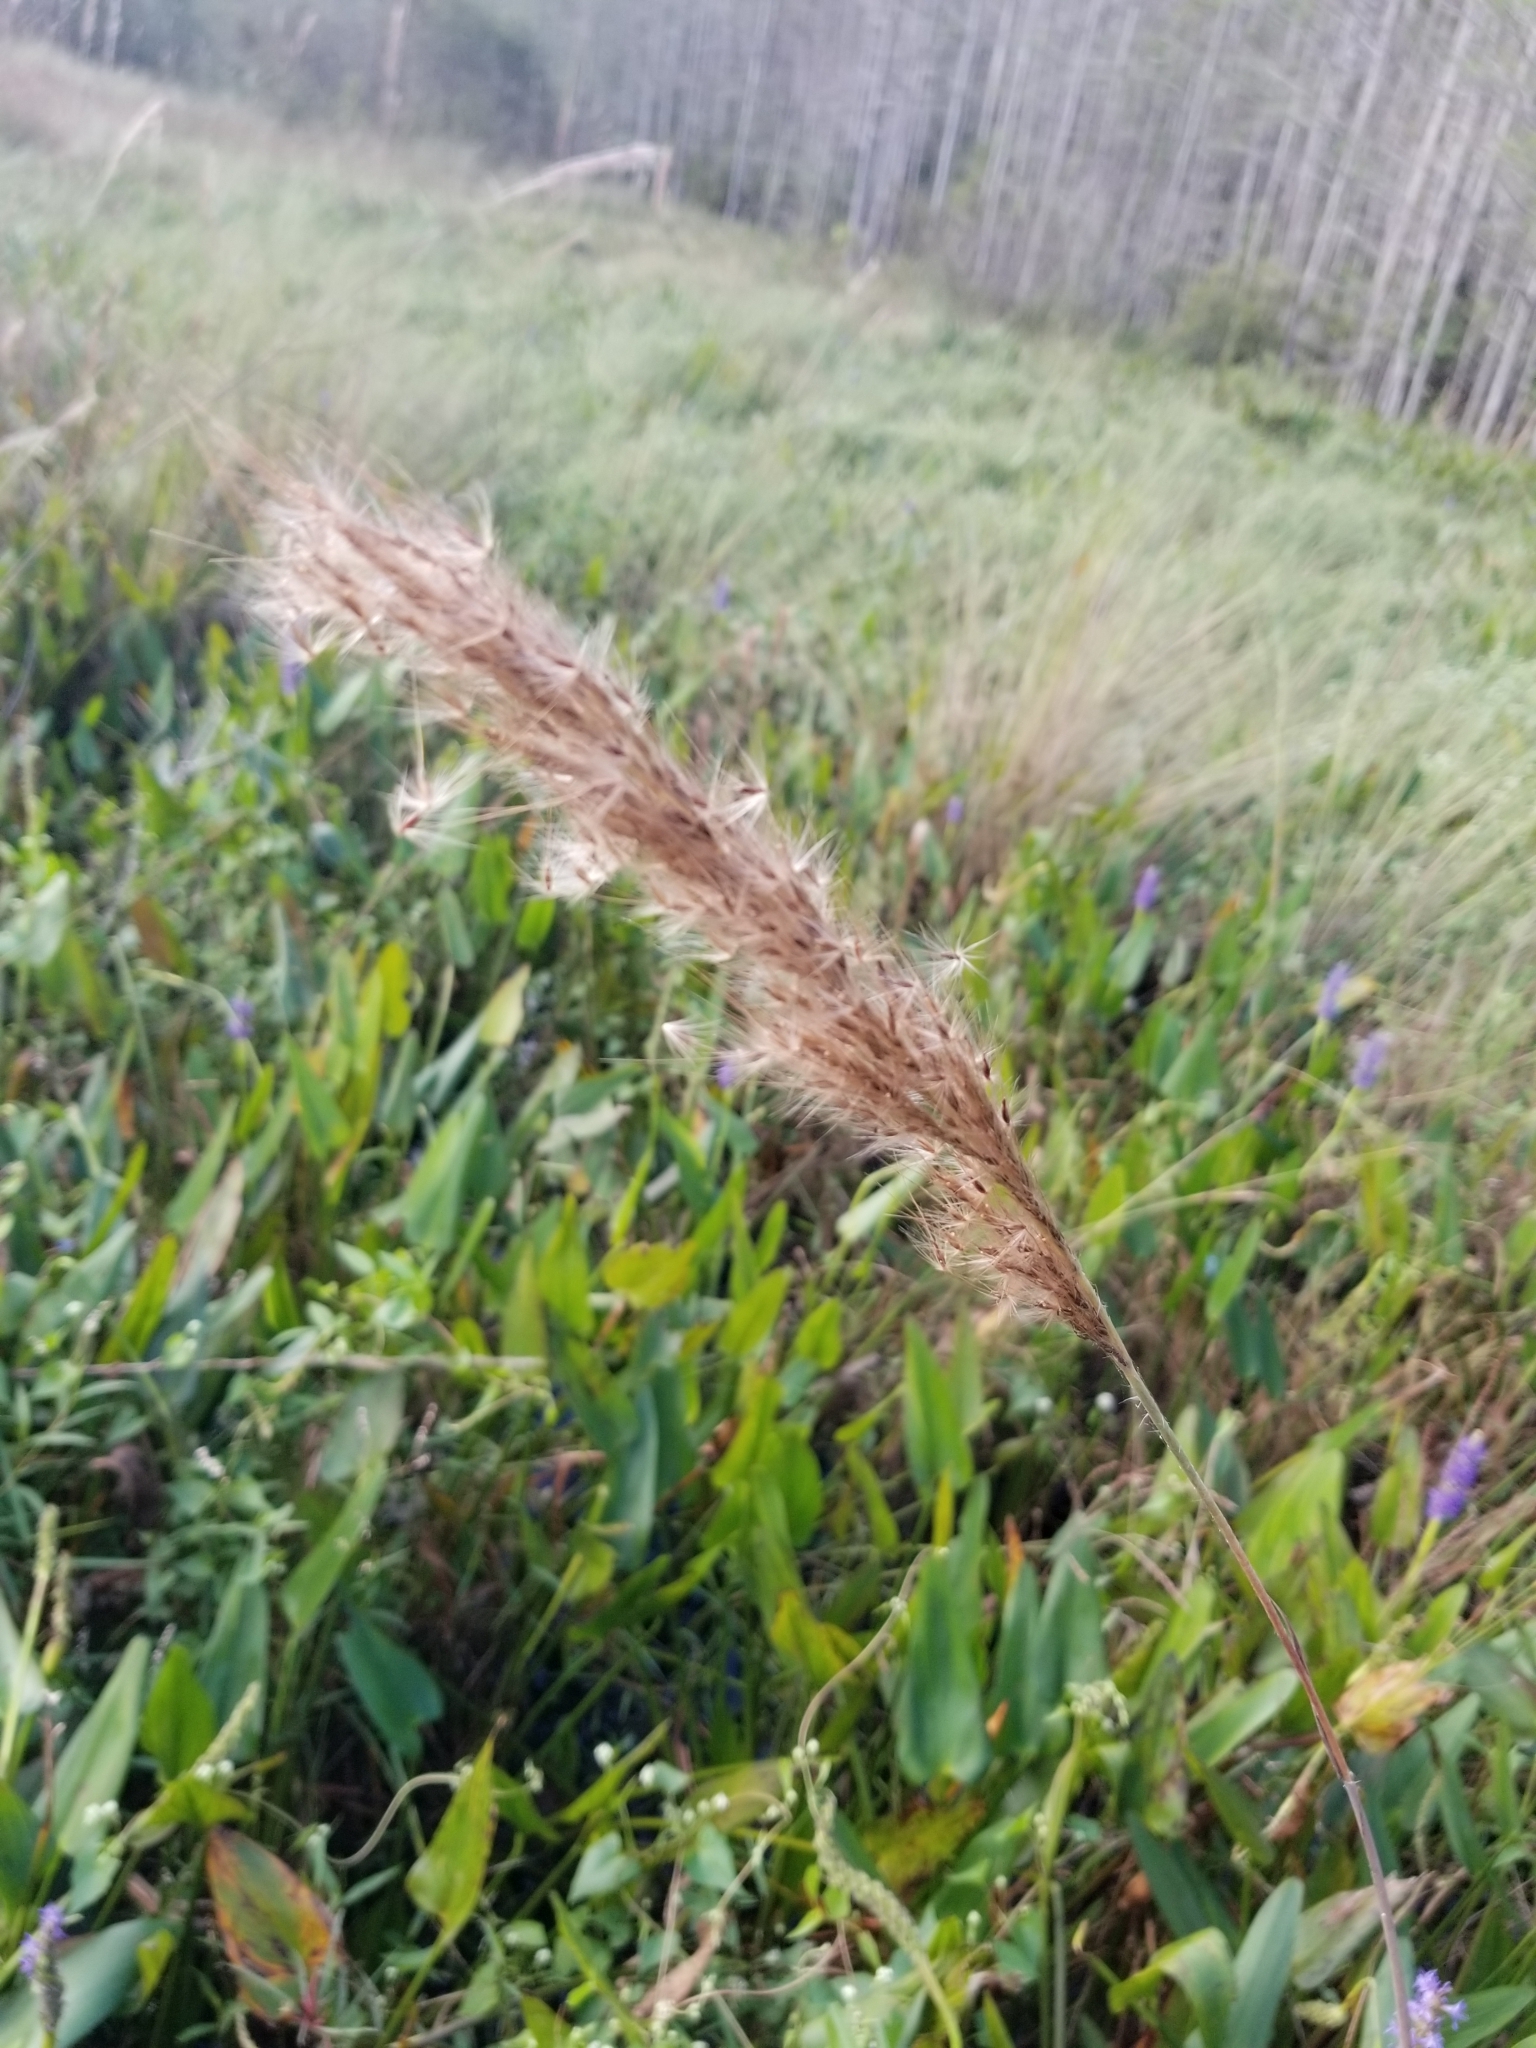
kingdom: Plantae
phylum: Tracheophyta
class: Liliopsida
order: Poales
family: Poaceae
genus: Erianthus
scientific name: Erianthus giganteus
